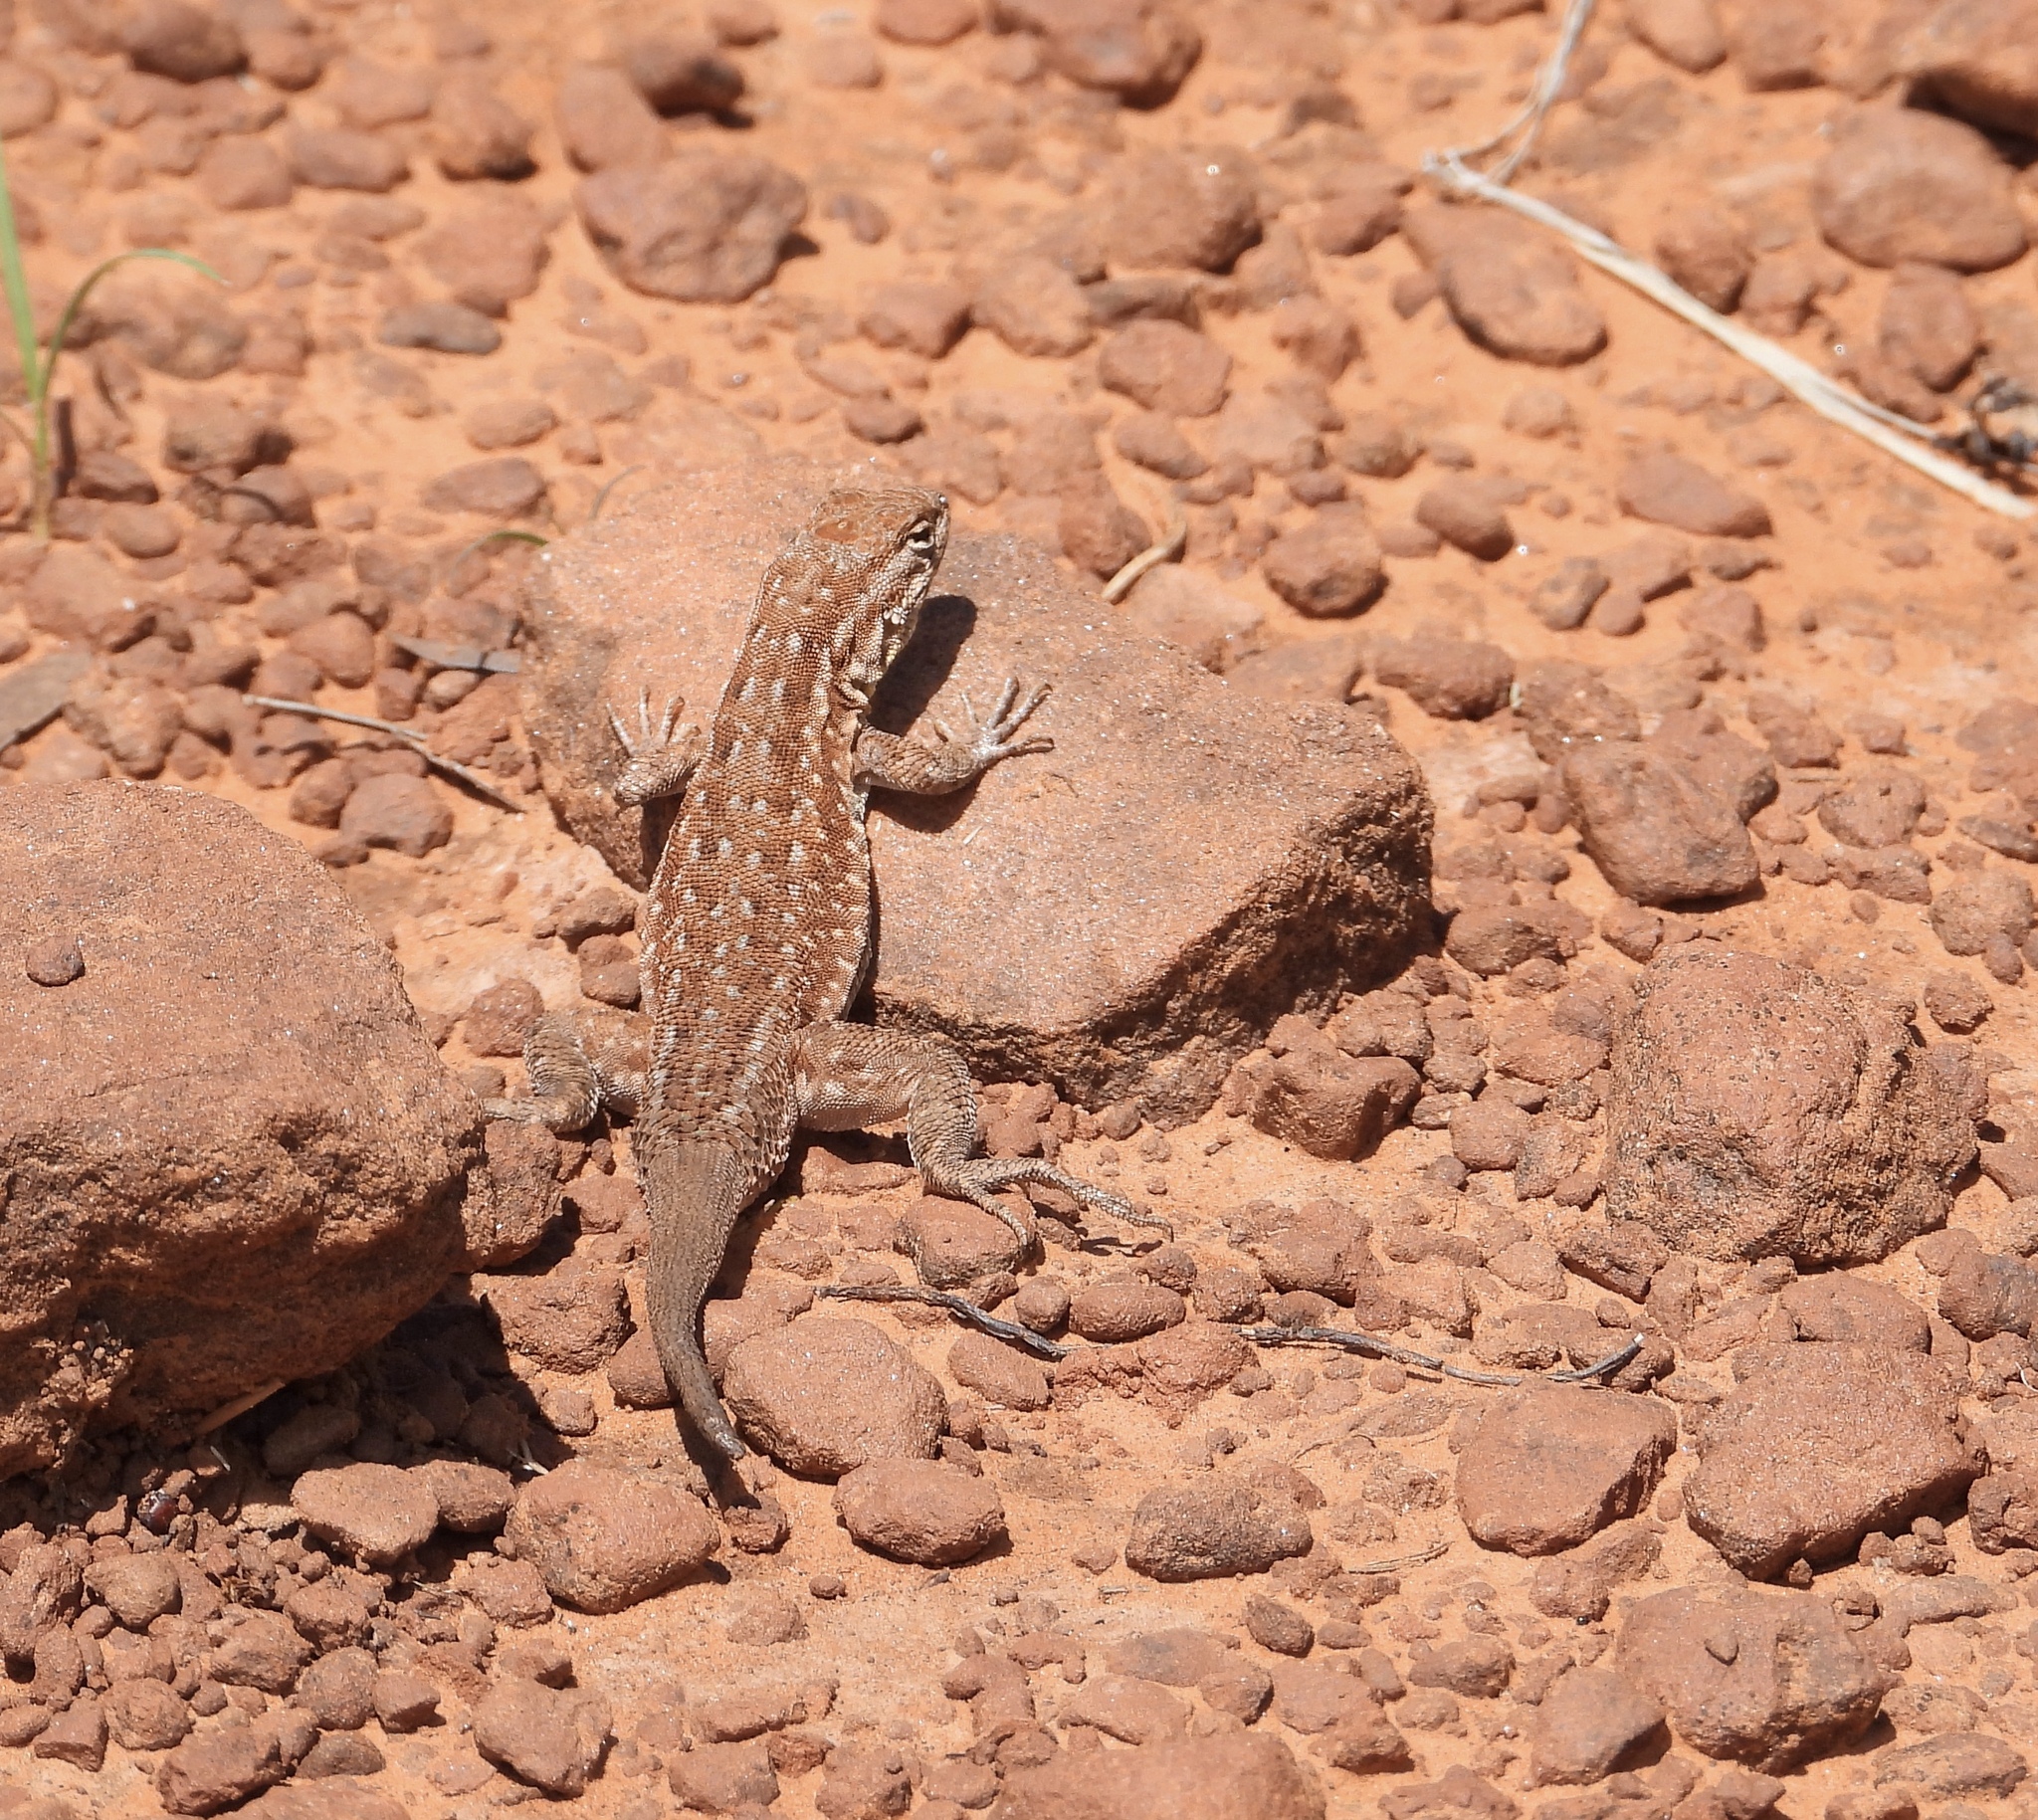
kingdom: Animalia
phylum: Chordata
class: Squamata
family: Phrynosomatidae
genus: Uta
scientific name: Uta stansburiana
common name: Side-blotched lizard
